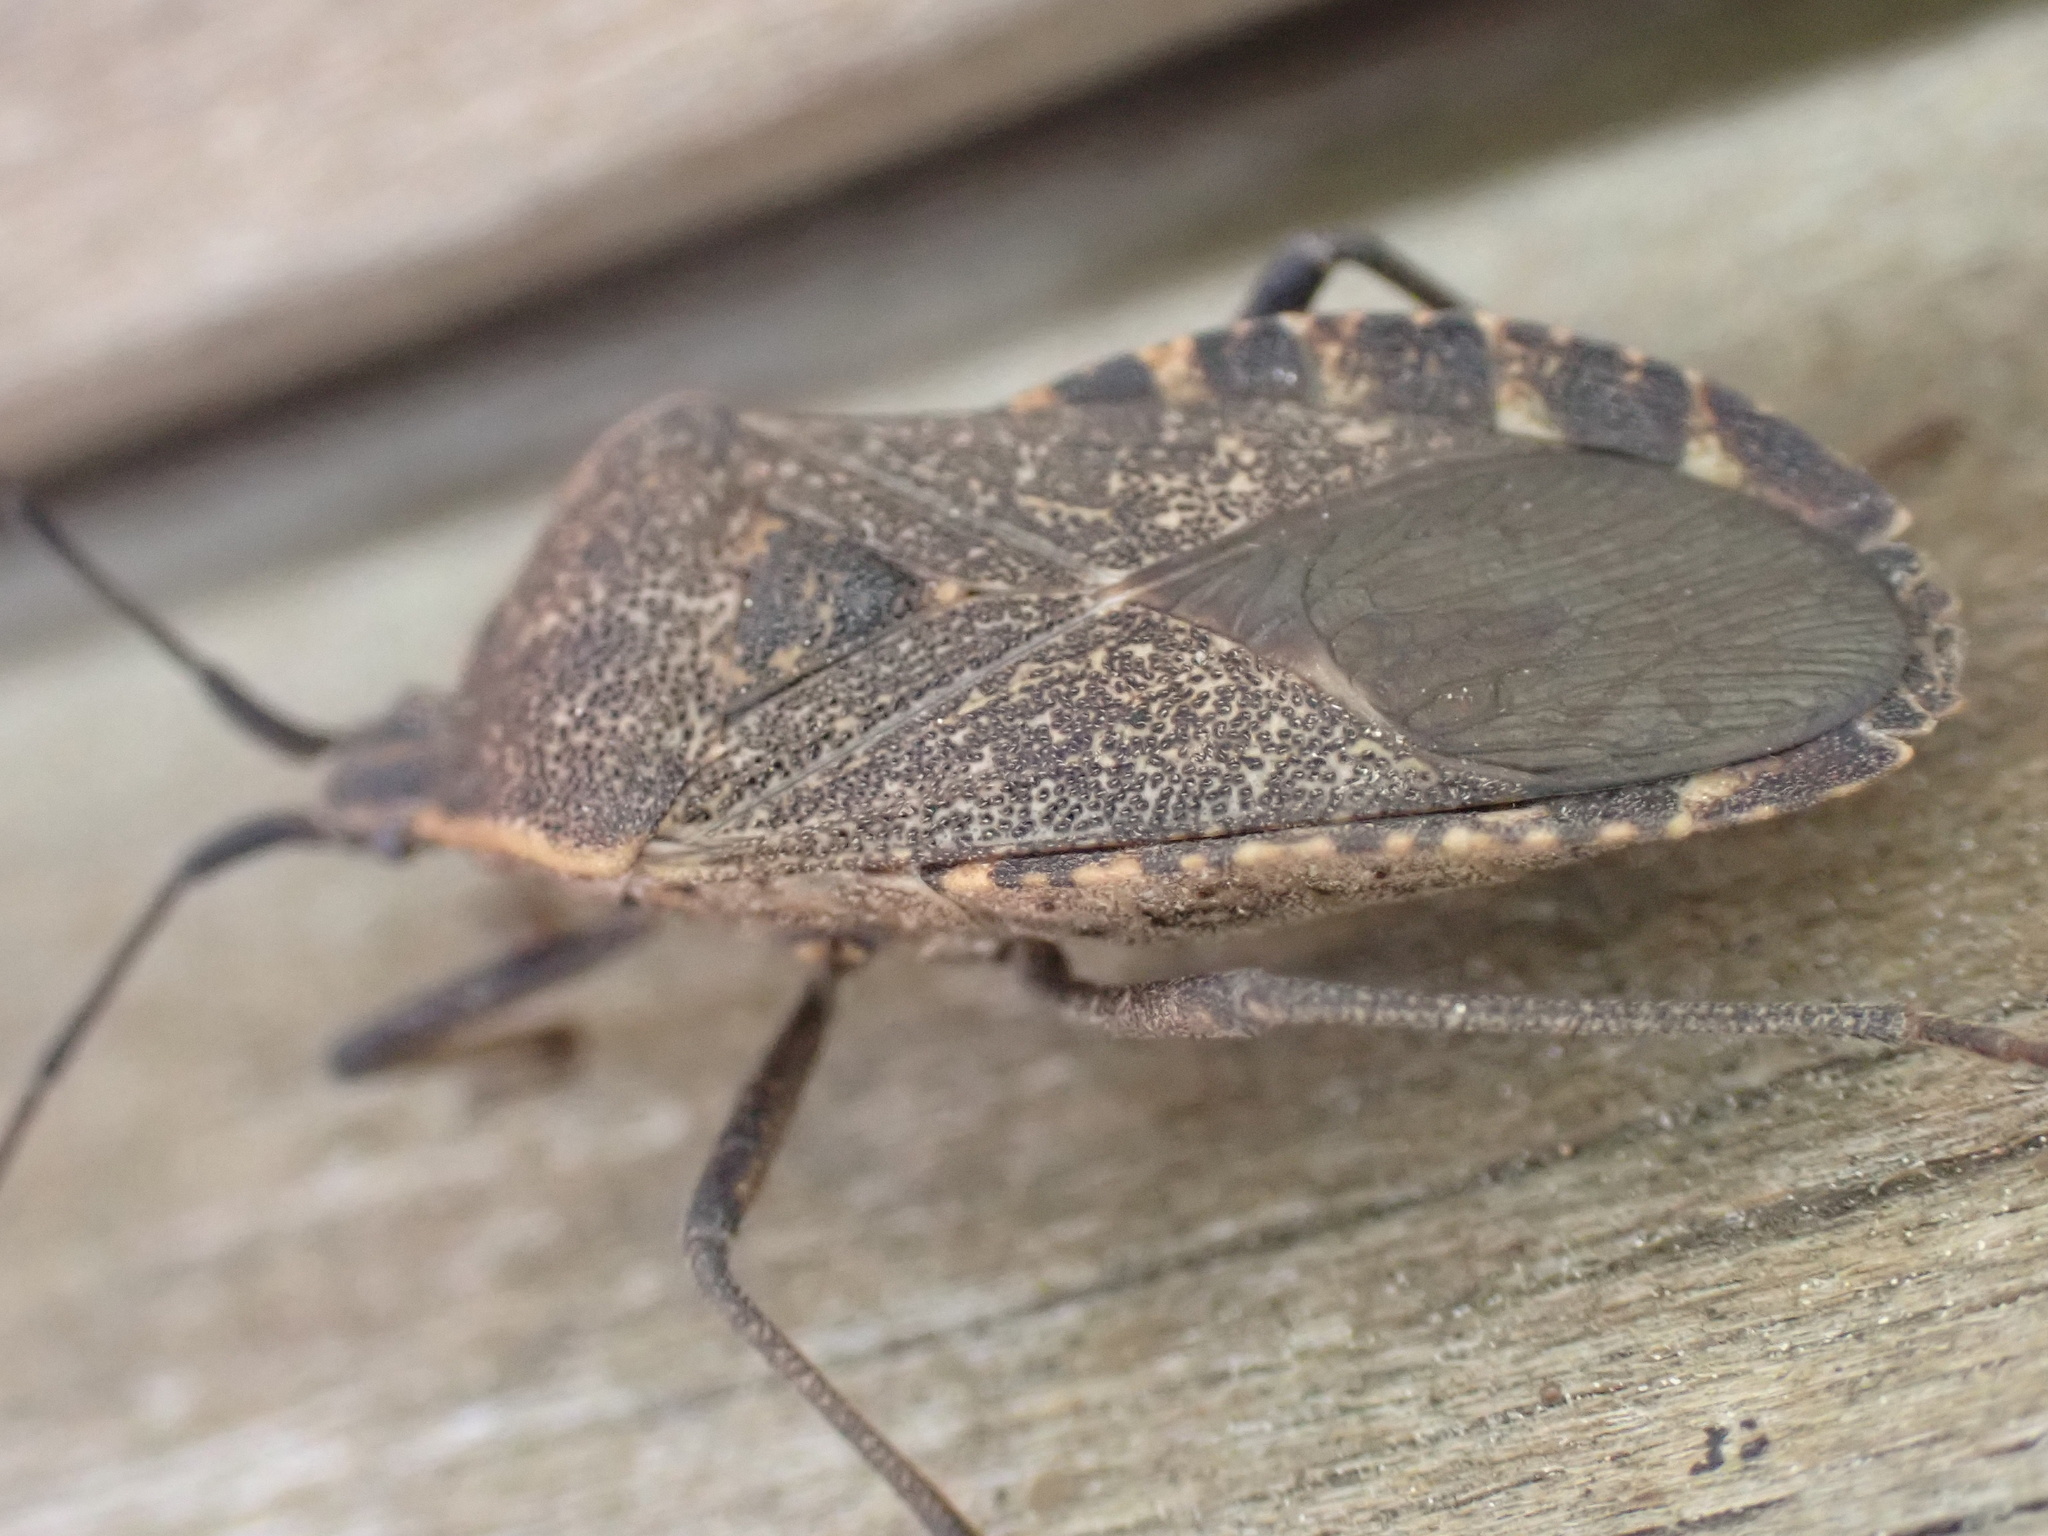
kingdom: Animalia
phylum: Arthropoda
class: Insecta
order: Hemiptera
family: Coreidae
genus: Anasa
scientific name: Anasa tristis
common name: Squash bug
